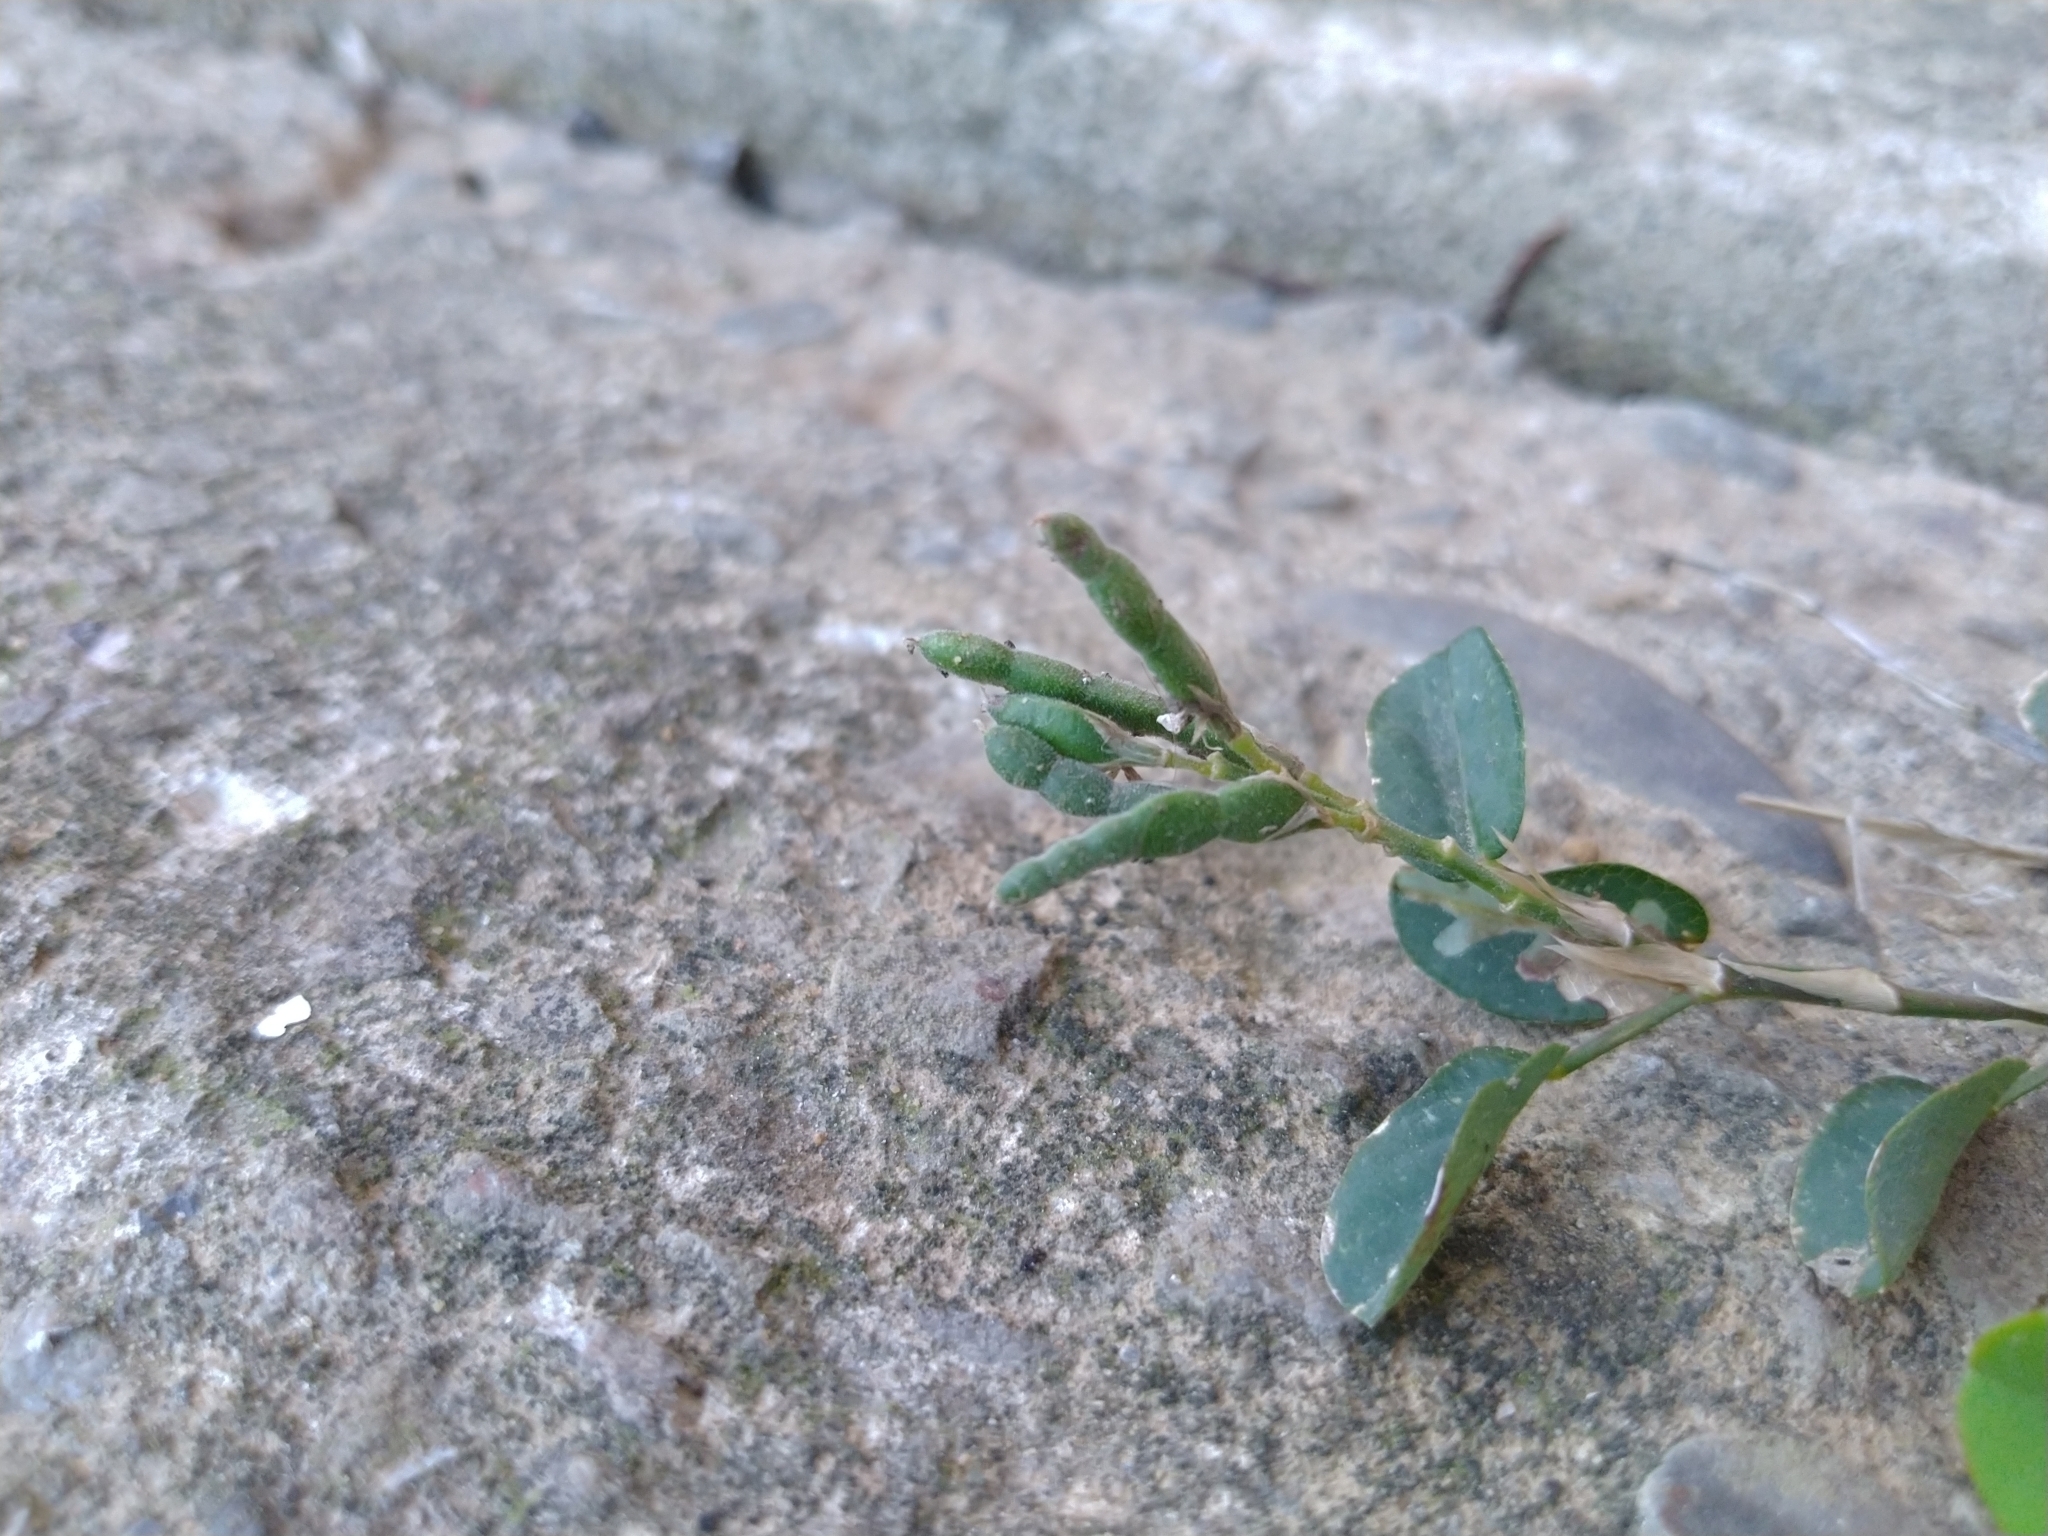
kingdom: Plantae
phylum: Tracheophyta
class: Magnoliopsida
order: Fabales
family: Fabaceae
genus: Alysicarpus
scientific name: Alysicarpus vaginalis
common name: White moneywort
